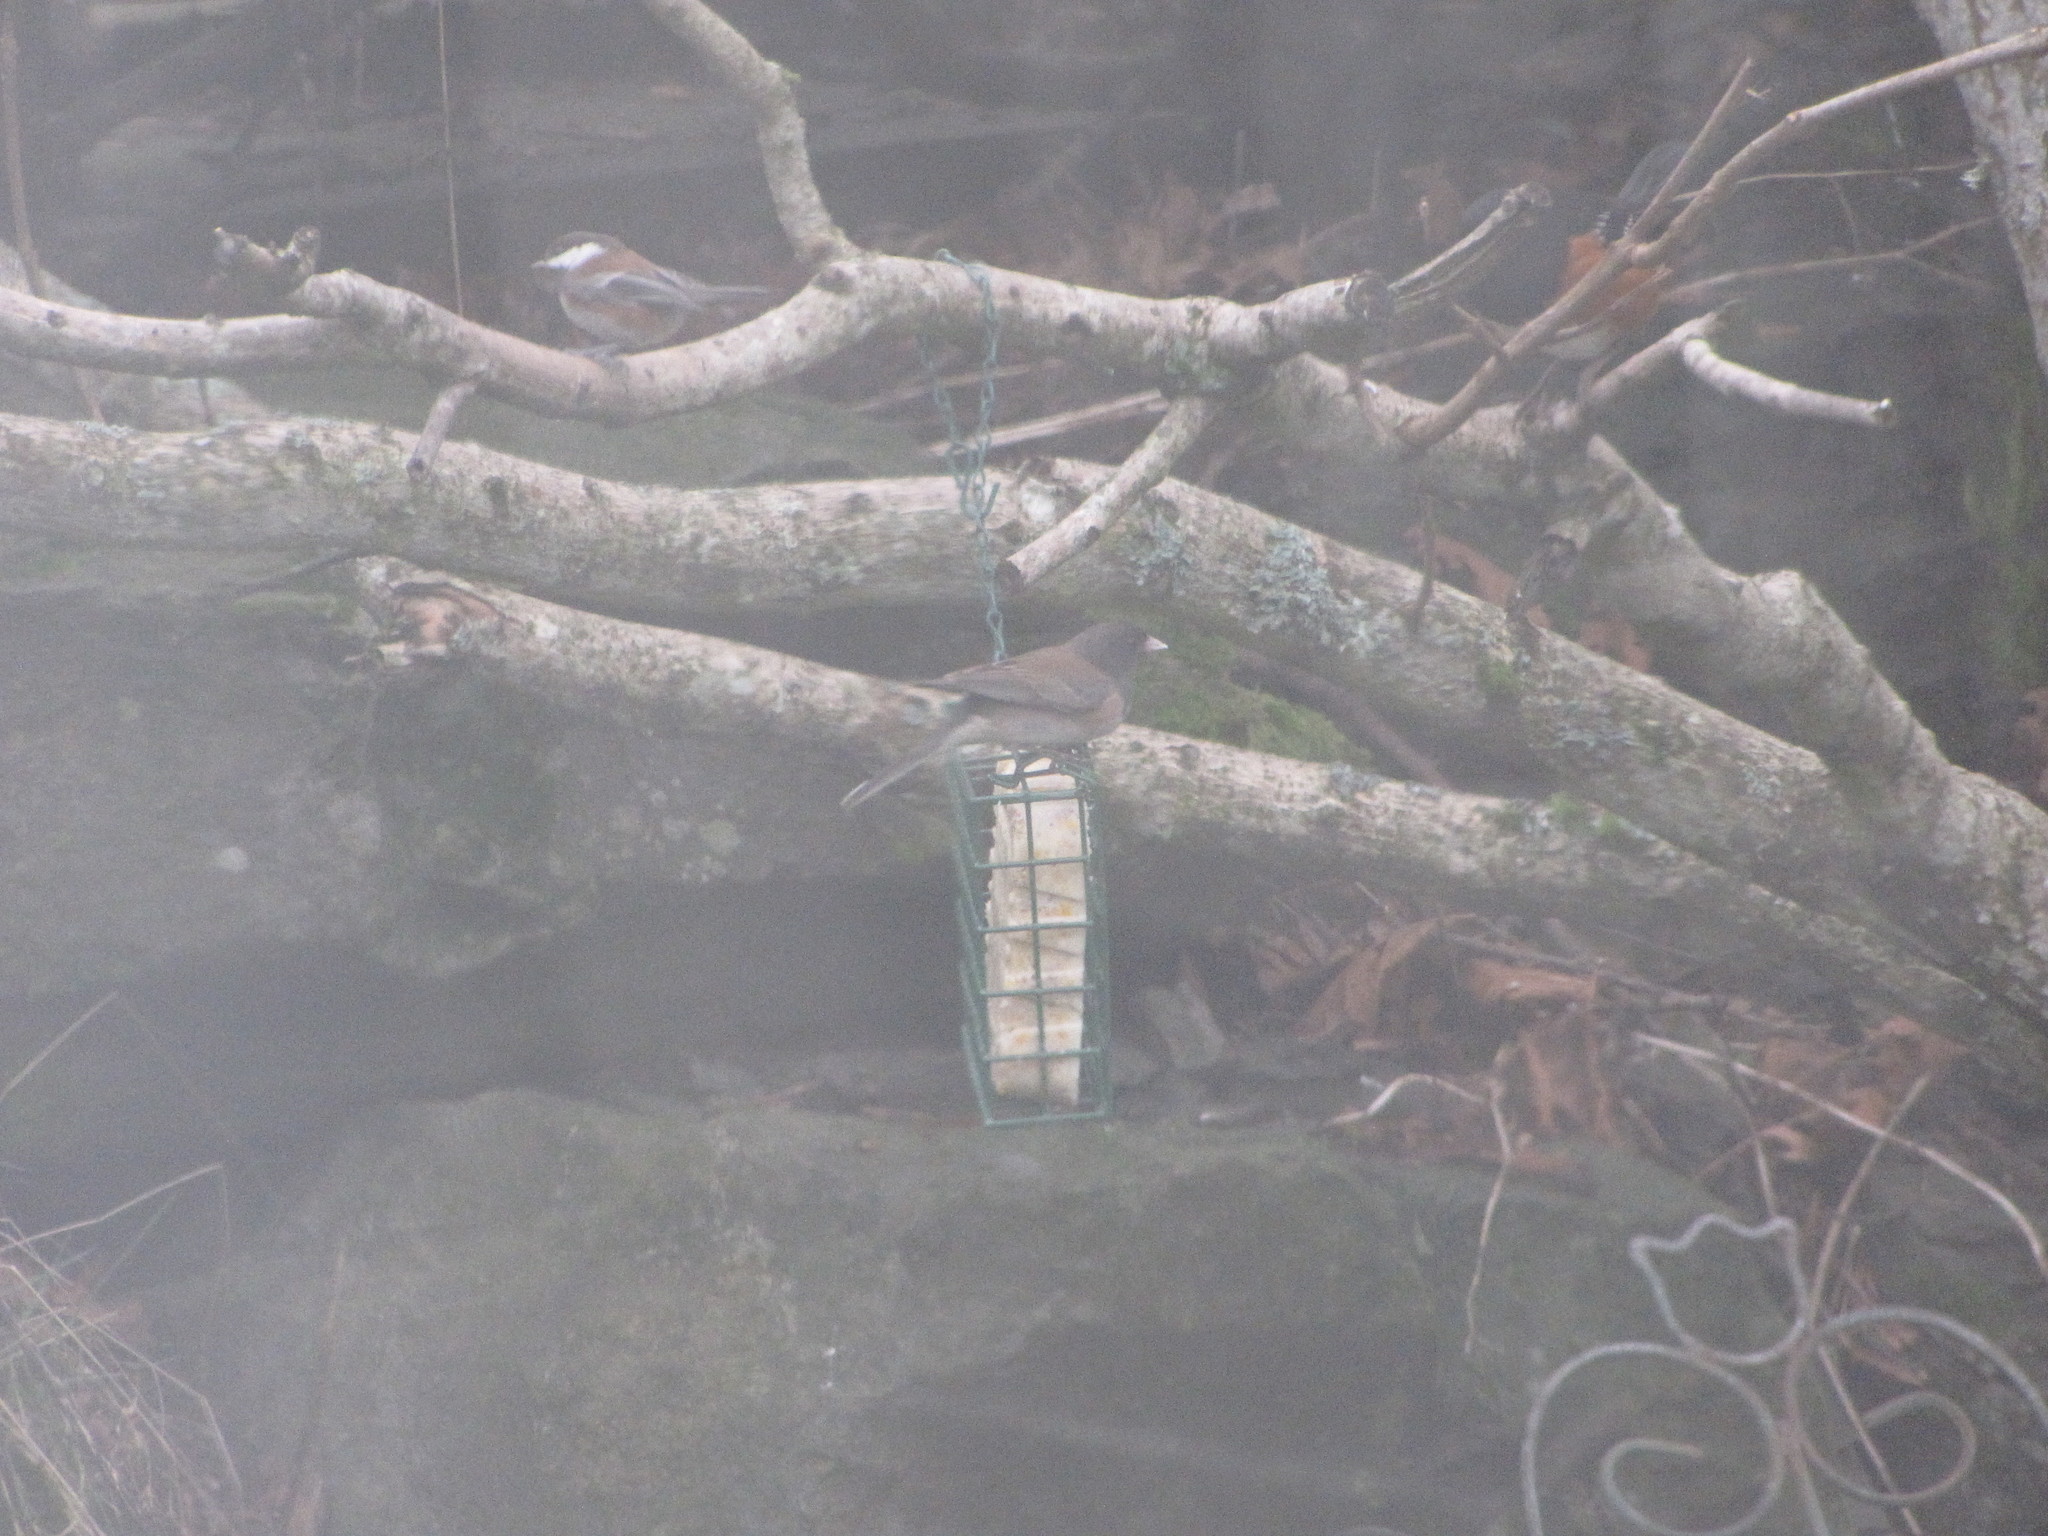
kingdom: Animalia
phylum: Chordata
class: Aves
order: Passeriformes
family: Passerellidae
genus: Junco
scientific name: Junco hyemalis
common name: Dark-eyed junco
